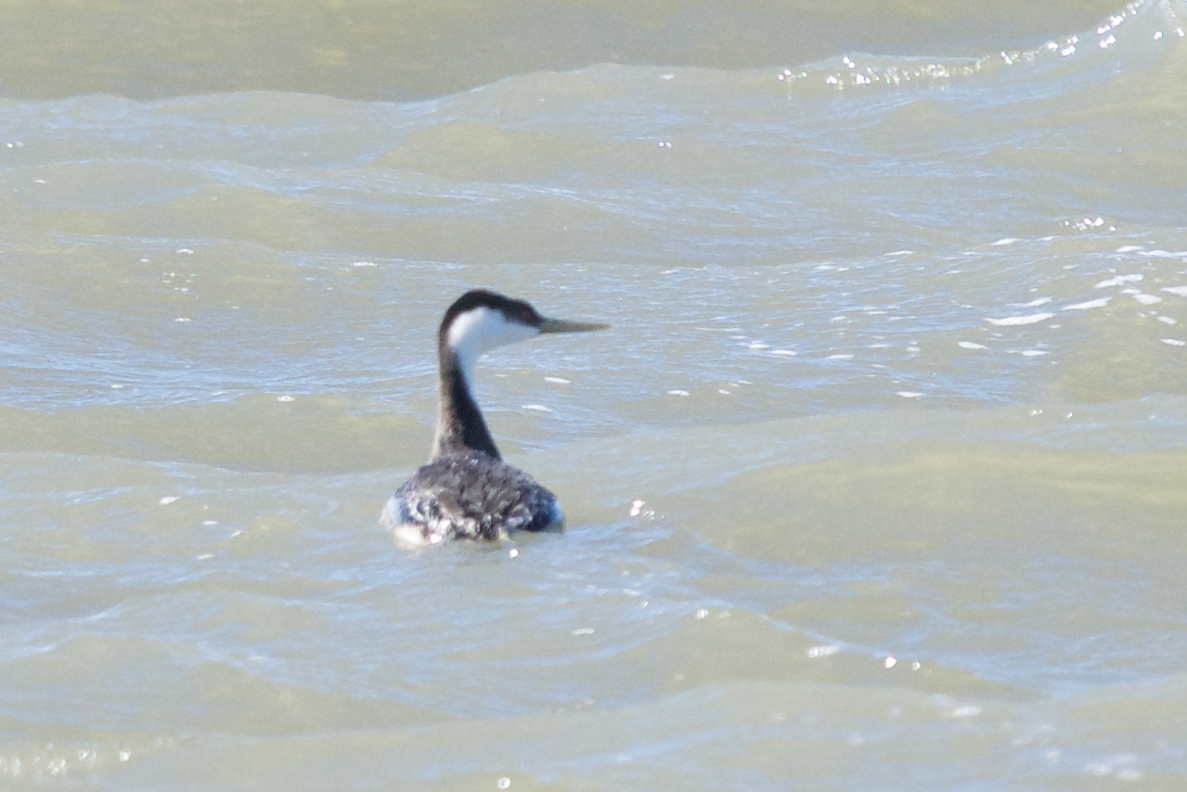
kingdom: Animalia
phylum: Chordata
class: Aves
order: Podicipediformes
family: Podicipedidae
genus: Aechmophorus
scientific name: Aechmophorus occidentalis
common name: Western grebe
